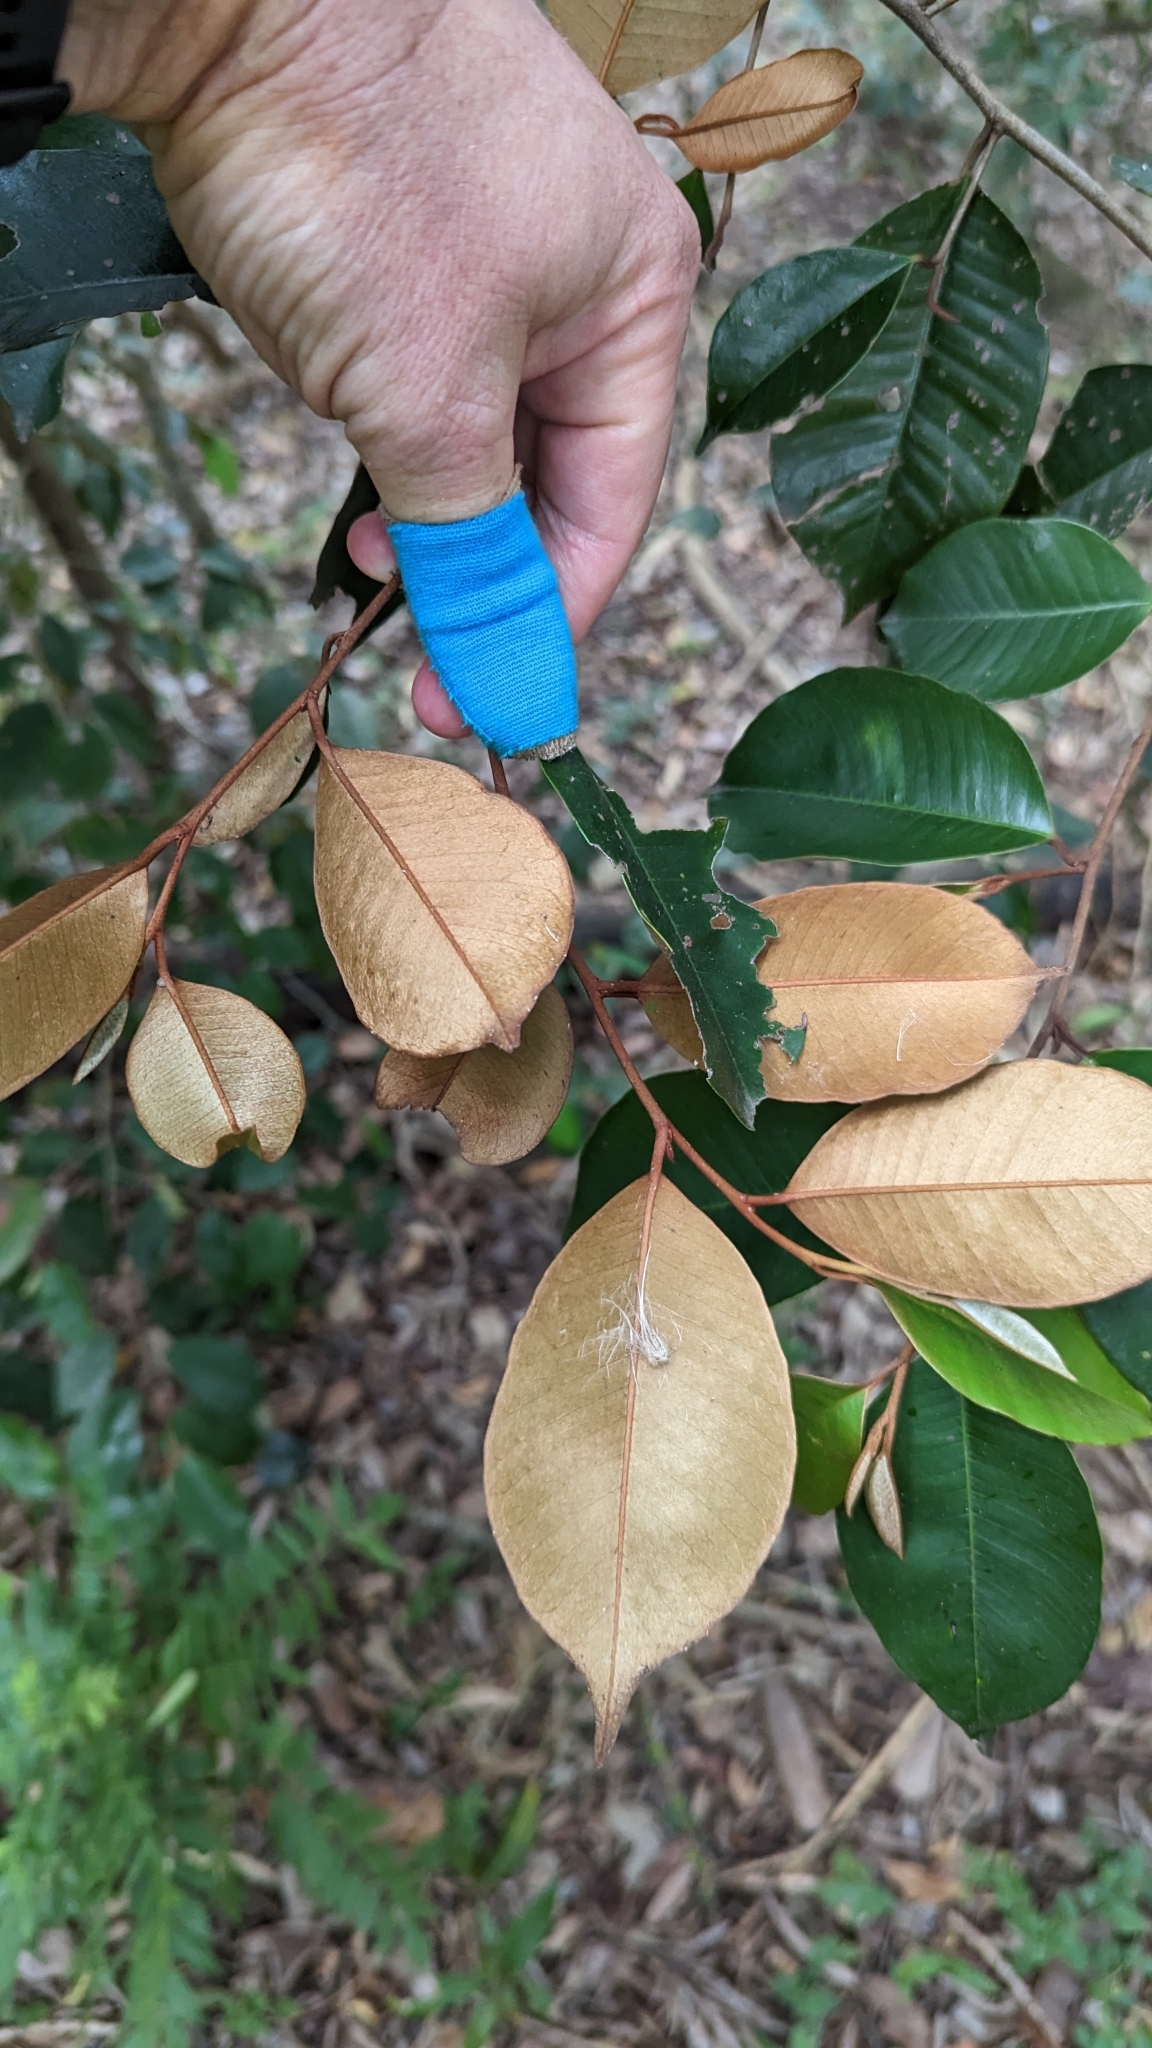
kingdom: Plantae
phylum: Tracheophyta
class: Magnoliopsida
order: Ericales
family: Sapotaceae
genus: Chrysophyllum
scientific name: Chrysophyllum oliviforme
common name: Satinleaf
